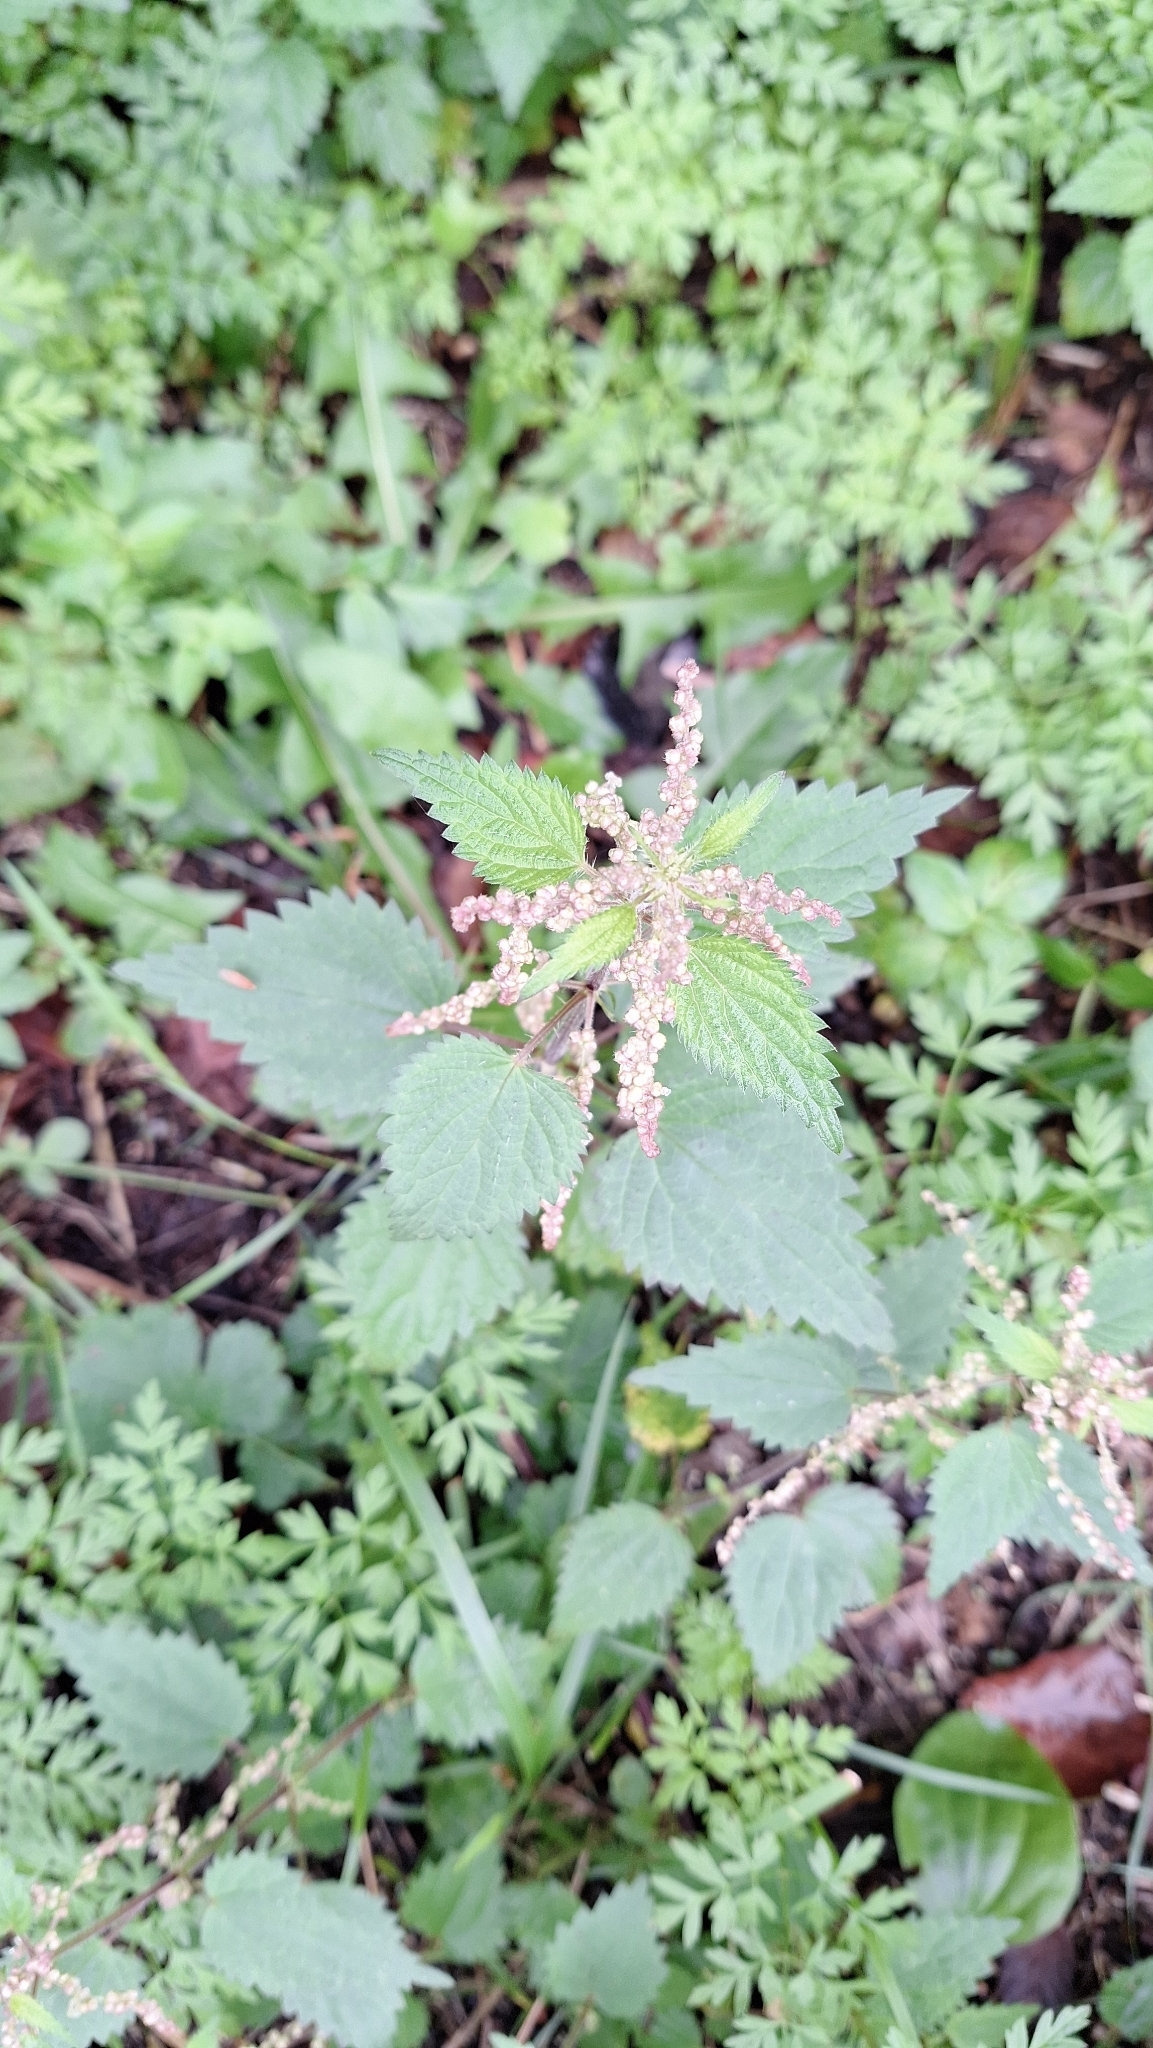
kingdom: Plantae
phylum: Tracheophyta
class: Magnoliopsida
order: Rosales
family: Urticaceae
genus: Urtica
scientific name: Urtica dioica
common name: Common nettle
